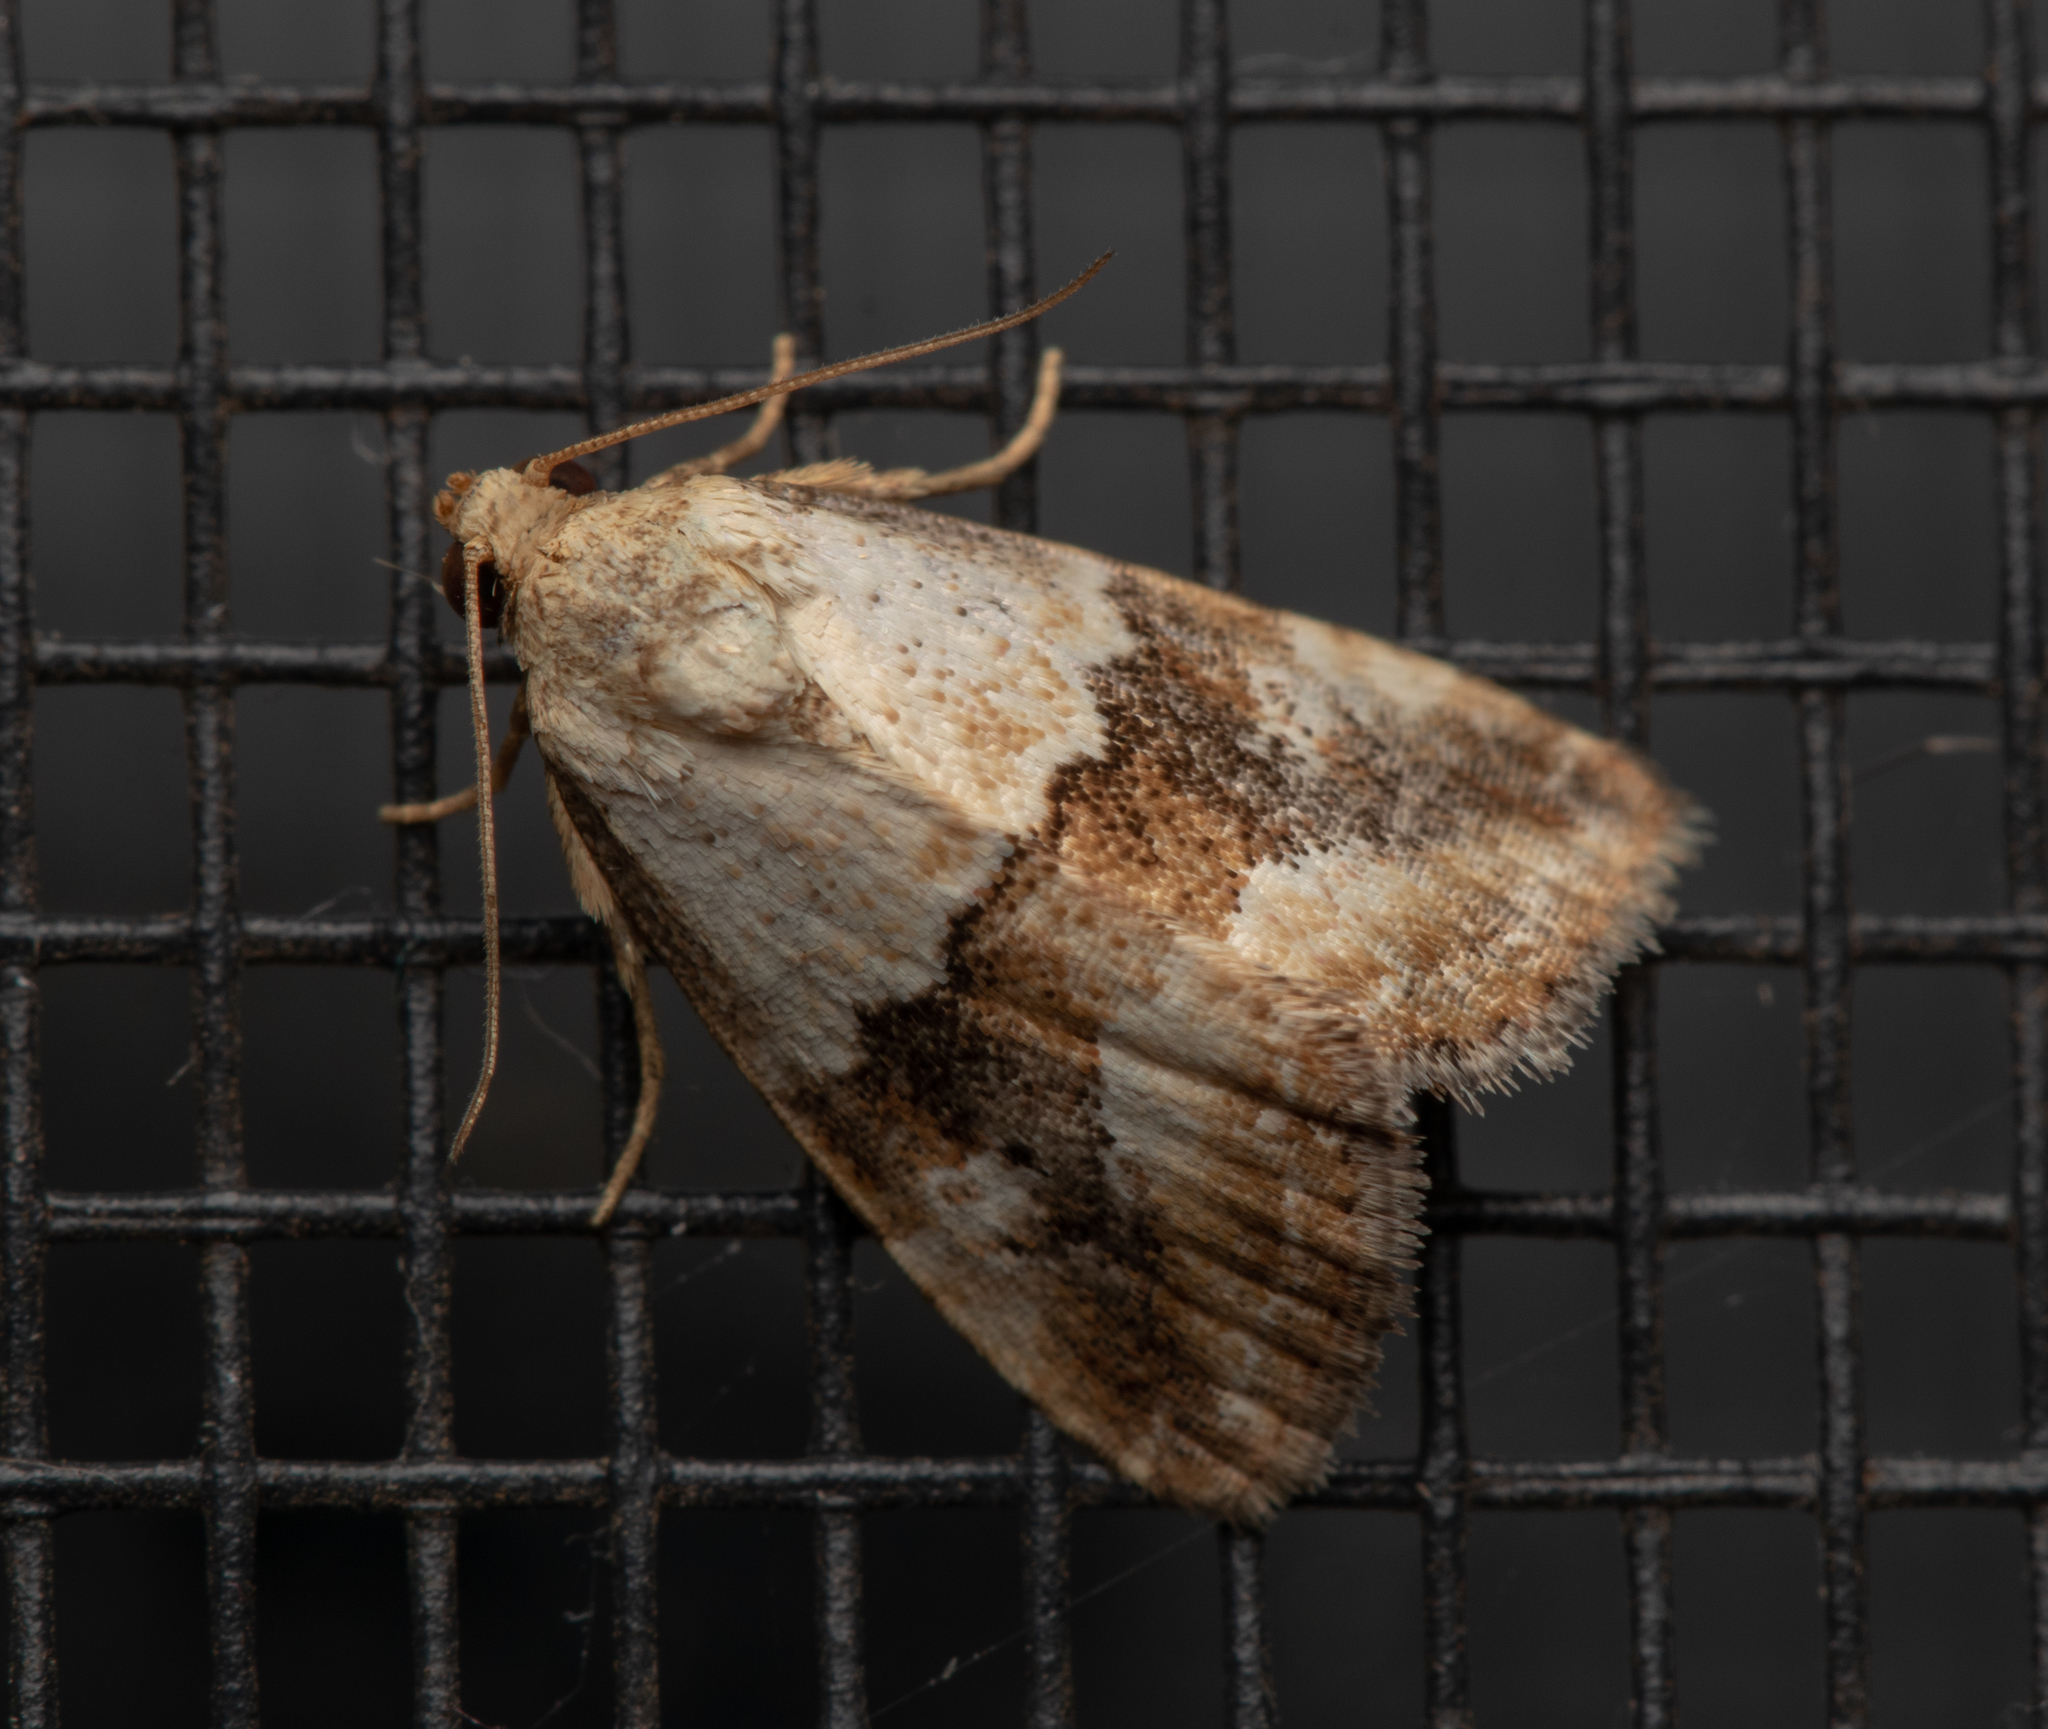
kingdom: Animalia
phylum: Arthropoda
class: Insecta
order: Lepidoptera
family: Noctuidae
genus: Maliattha
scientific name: Maliattha amorpha
